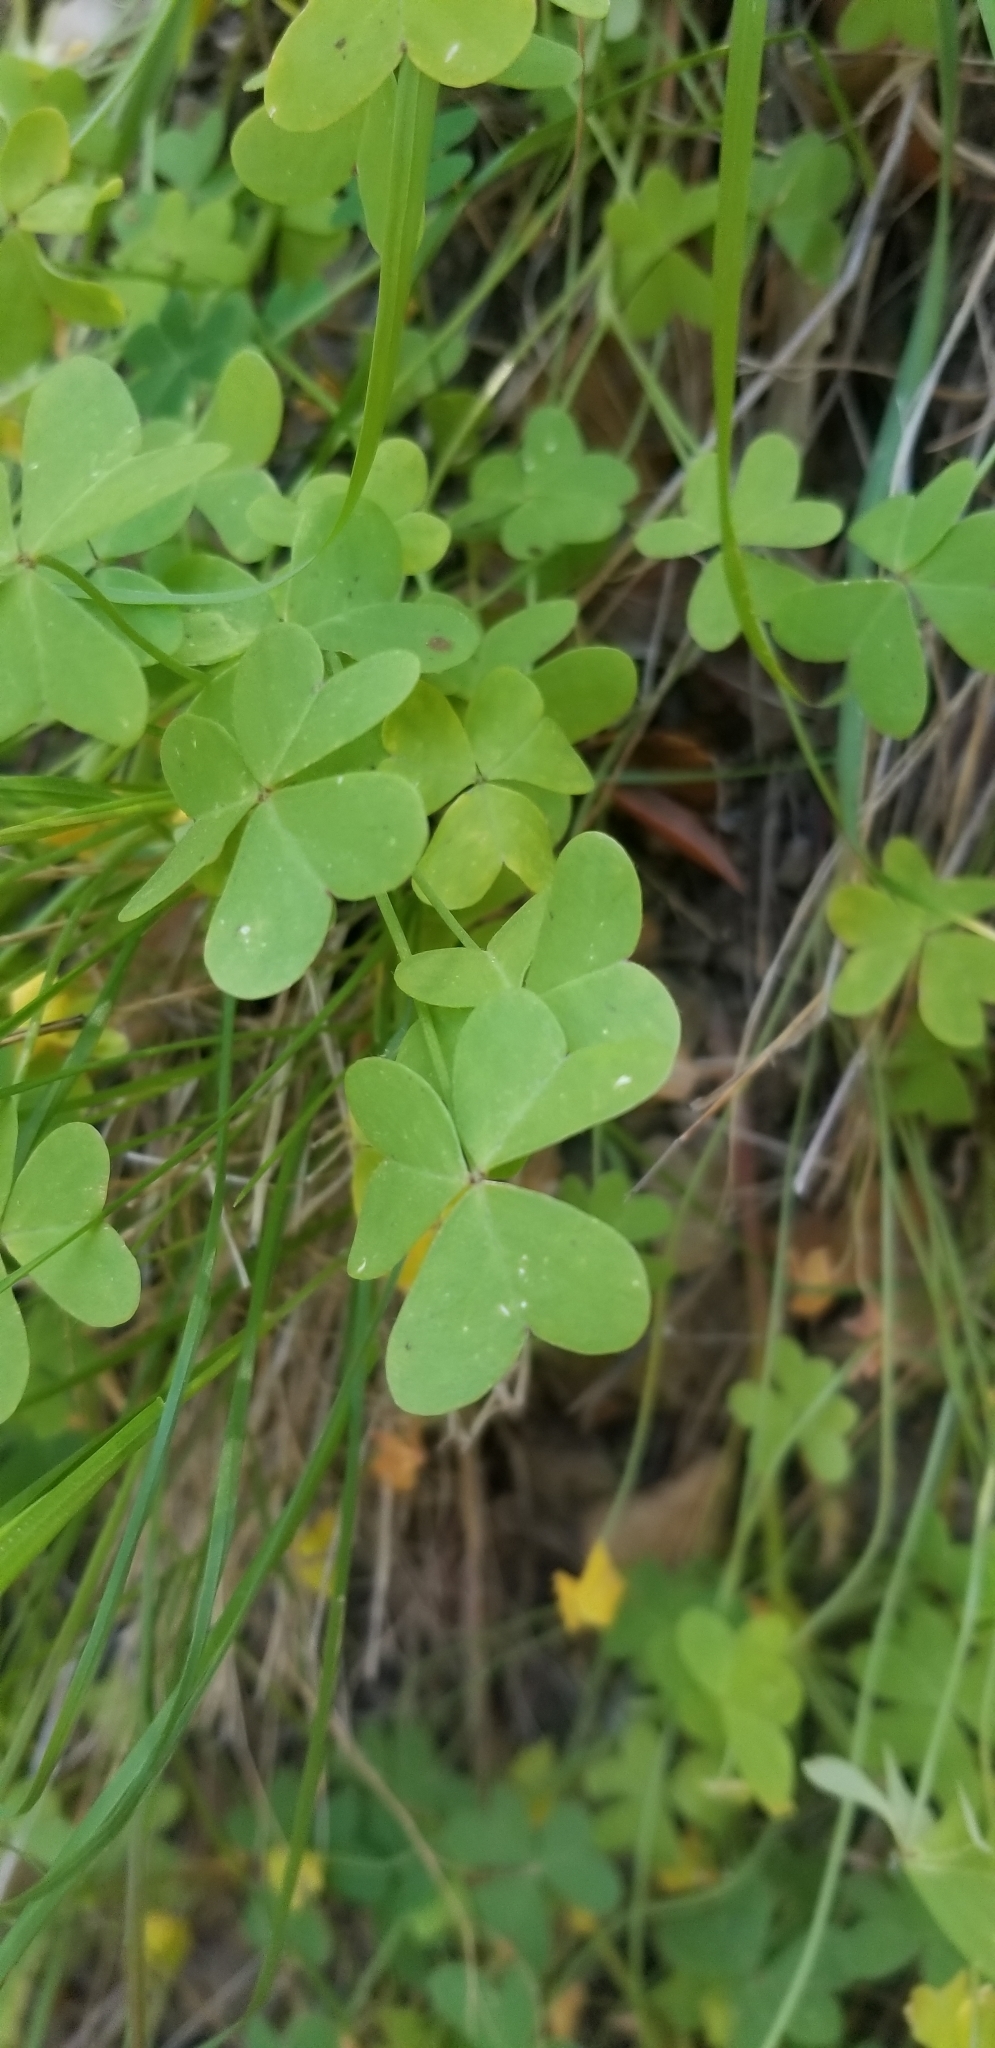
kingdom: Plantae
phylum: Tracheophyta
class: Magnoliopsida
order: Oxalidales
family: Oxalidaceae
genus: Oxalis
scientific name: Oxalis pes-caprae
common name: Bermuda-buttercup
